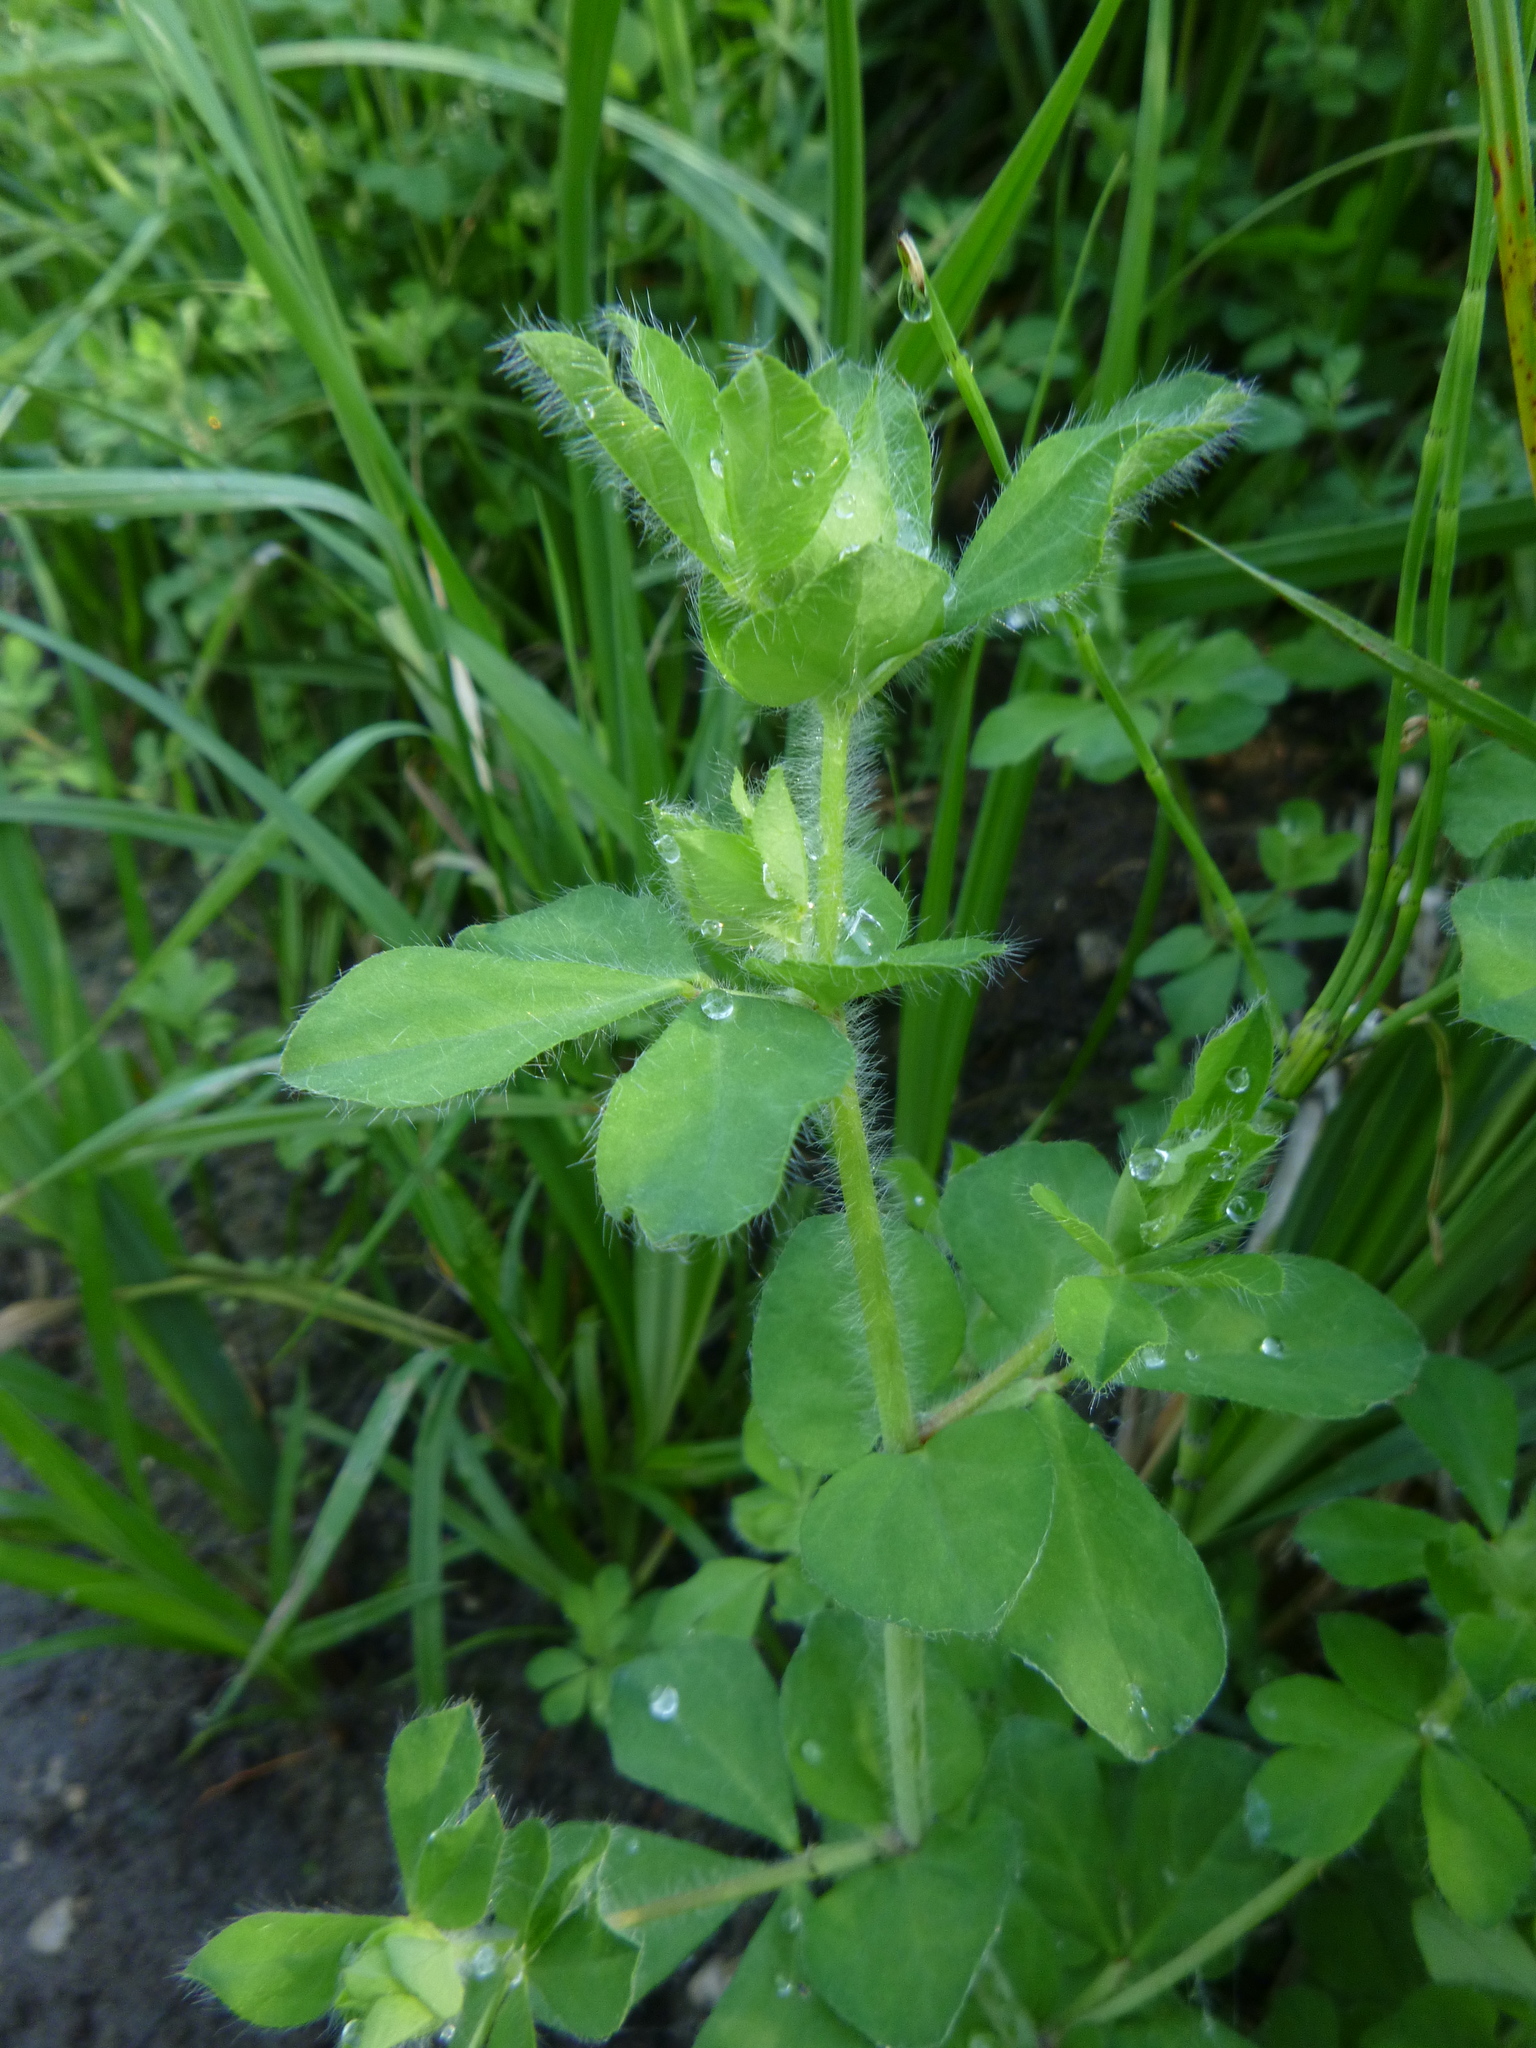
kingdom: Plantae
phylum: Tracheophyta
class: Magnoliopsida
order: Fabales
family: Fabaceae
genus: Lotus
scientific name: Lotus pedunculatus
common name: Greater birdsfoot-trefoil
